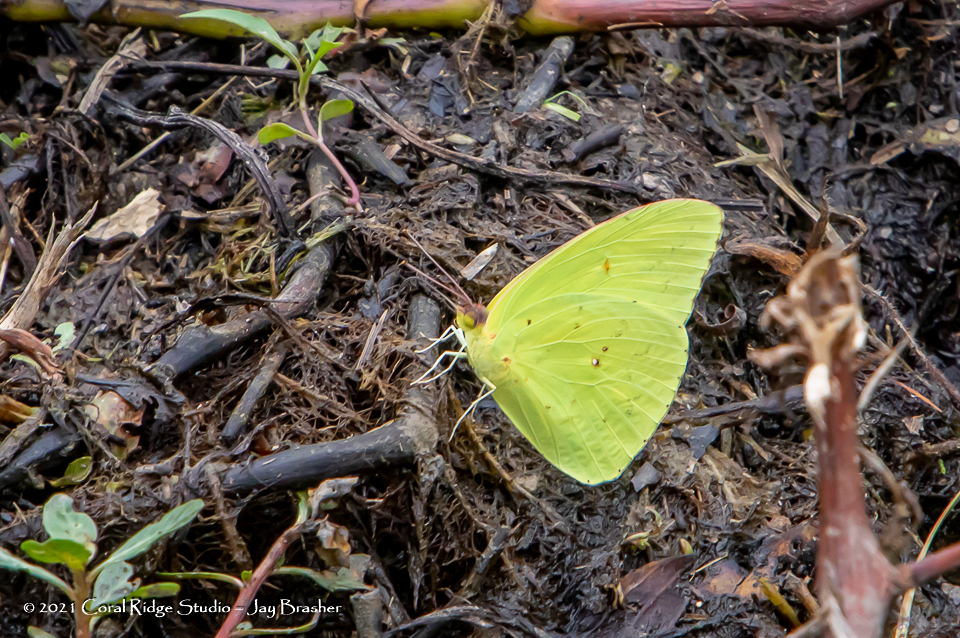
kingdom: Animalia
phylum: Arthropoda
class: Insecta
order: Lepidoptera
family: Pieridae
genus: Phoebis
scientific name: Phoebis sennae
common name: Cloudless sulphur
